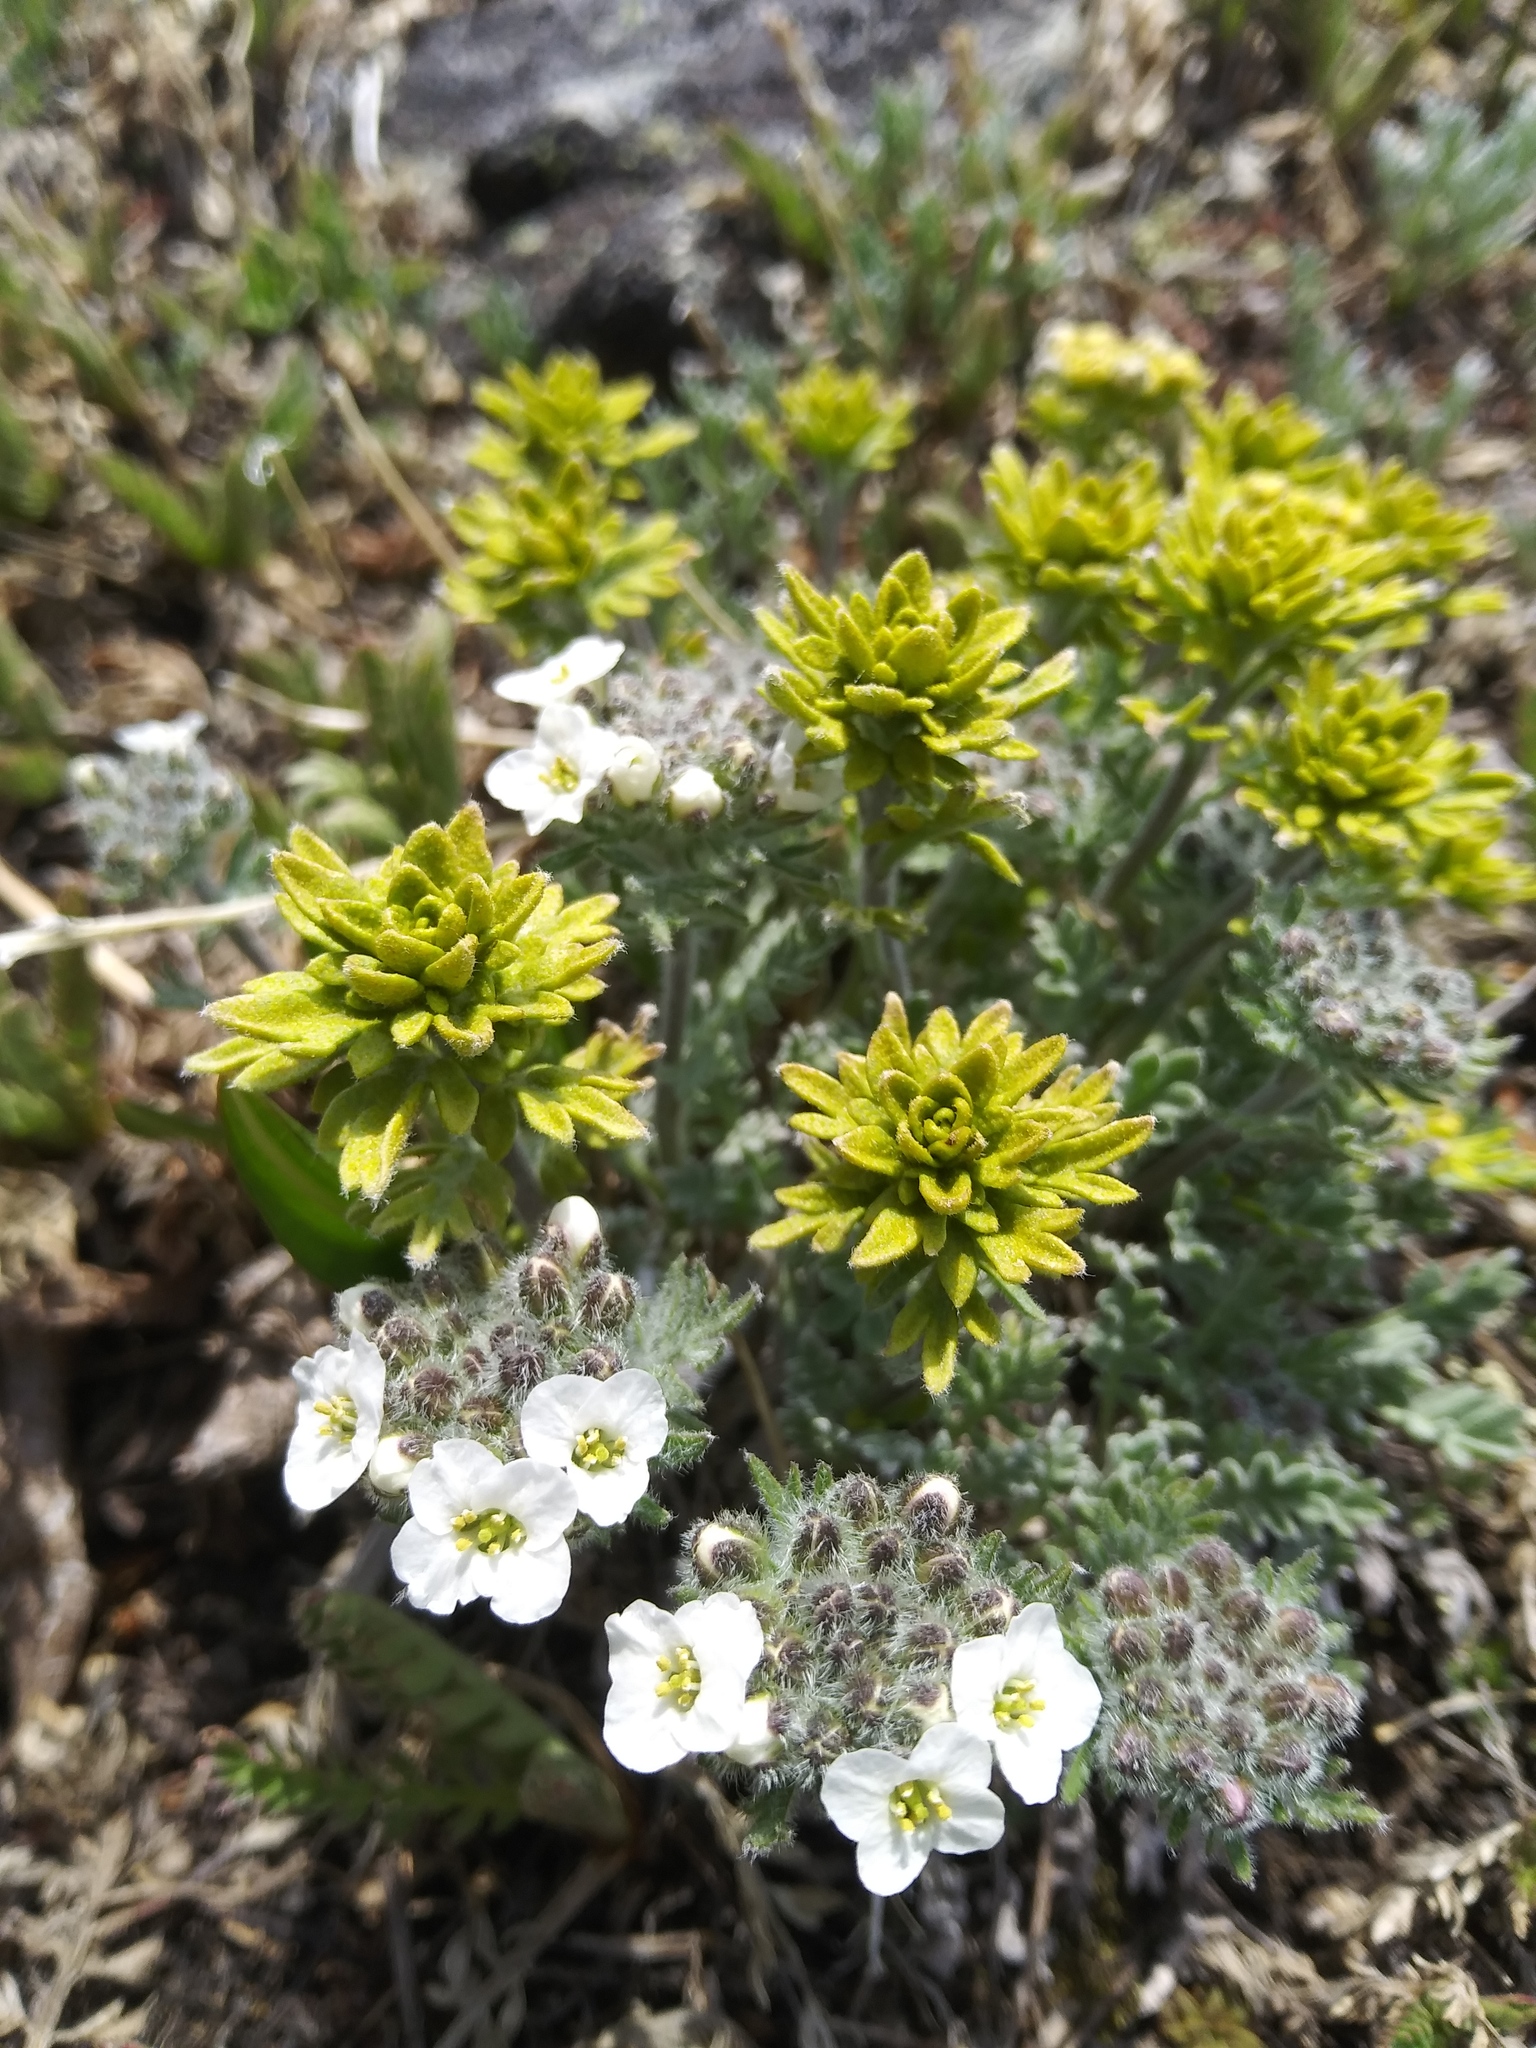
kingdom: Plantae
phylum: Tracheophyta
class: Magnoliopsida
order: Brassicales
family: Brassicaceae
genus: Smelowskia
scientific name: Smelowskia americana
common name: American false candytuft
